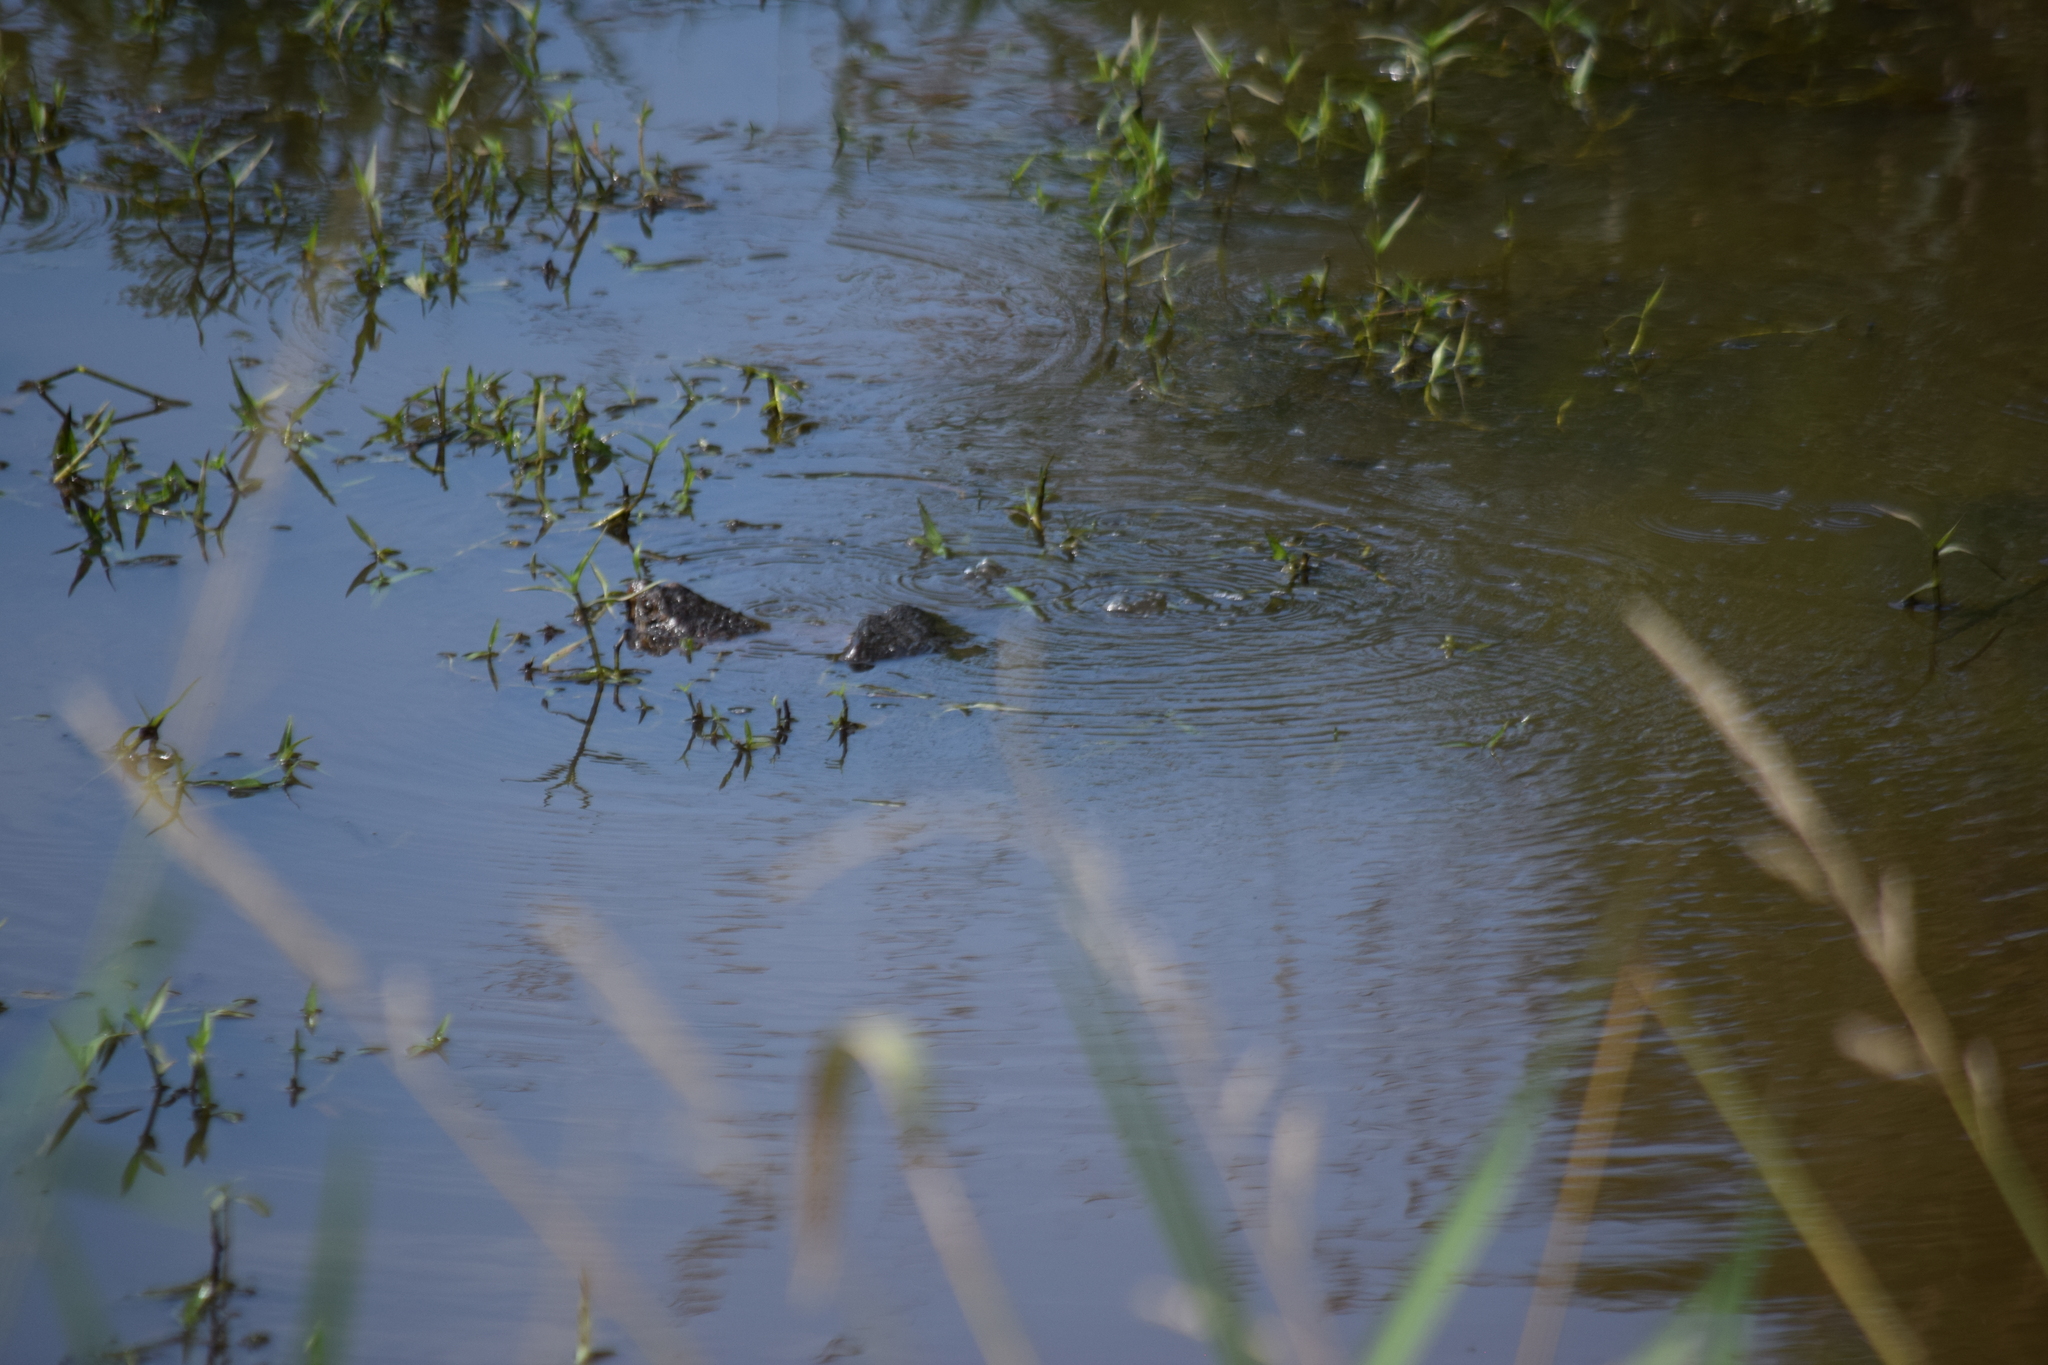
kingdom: Animalia
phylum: Chordata
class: Testudines
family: Chelydridae
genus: Chelydra
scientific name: Chelydra serpentina
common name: Common snapping turtle
